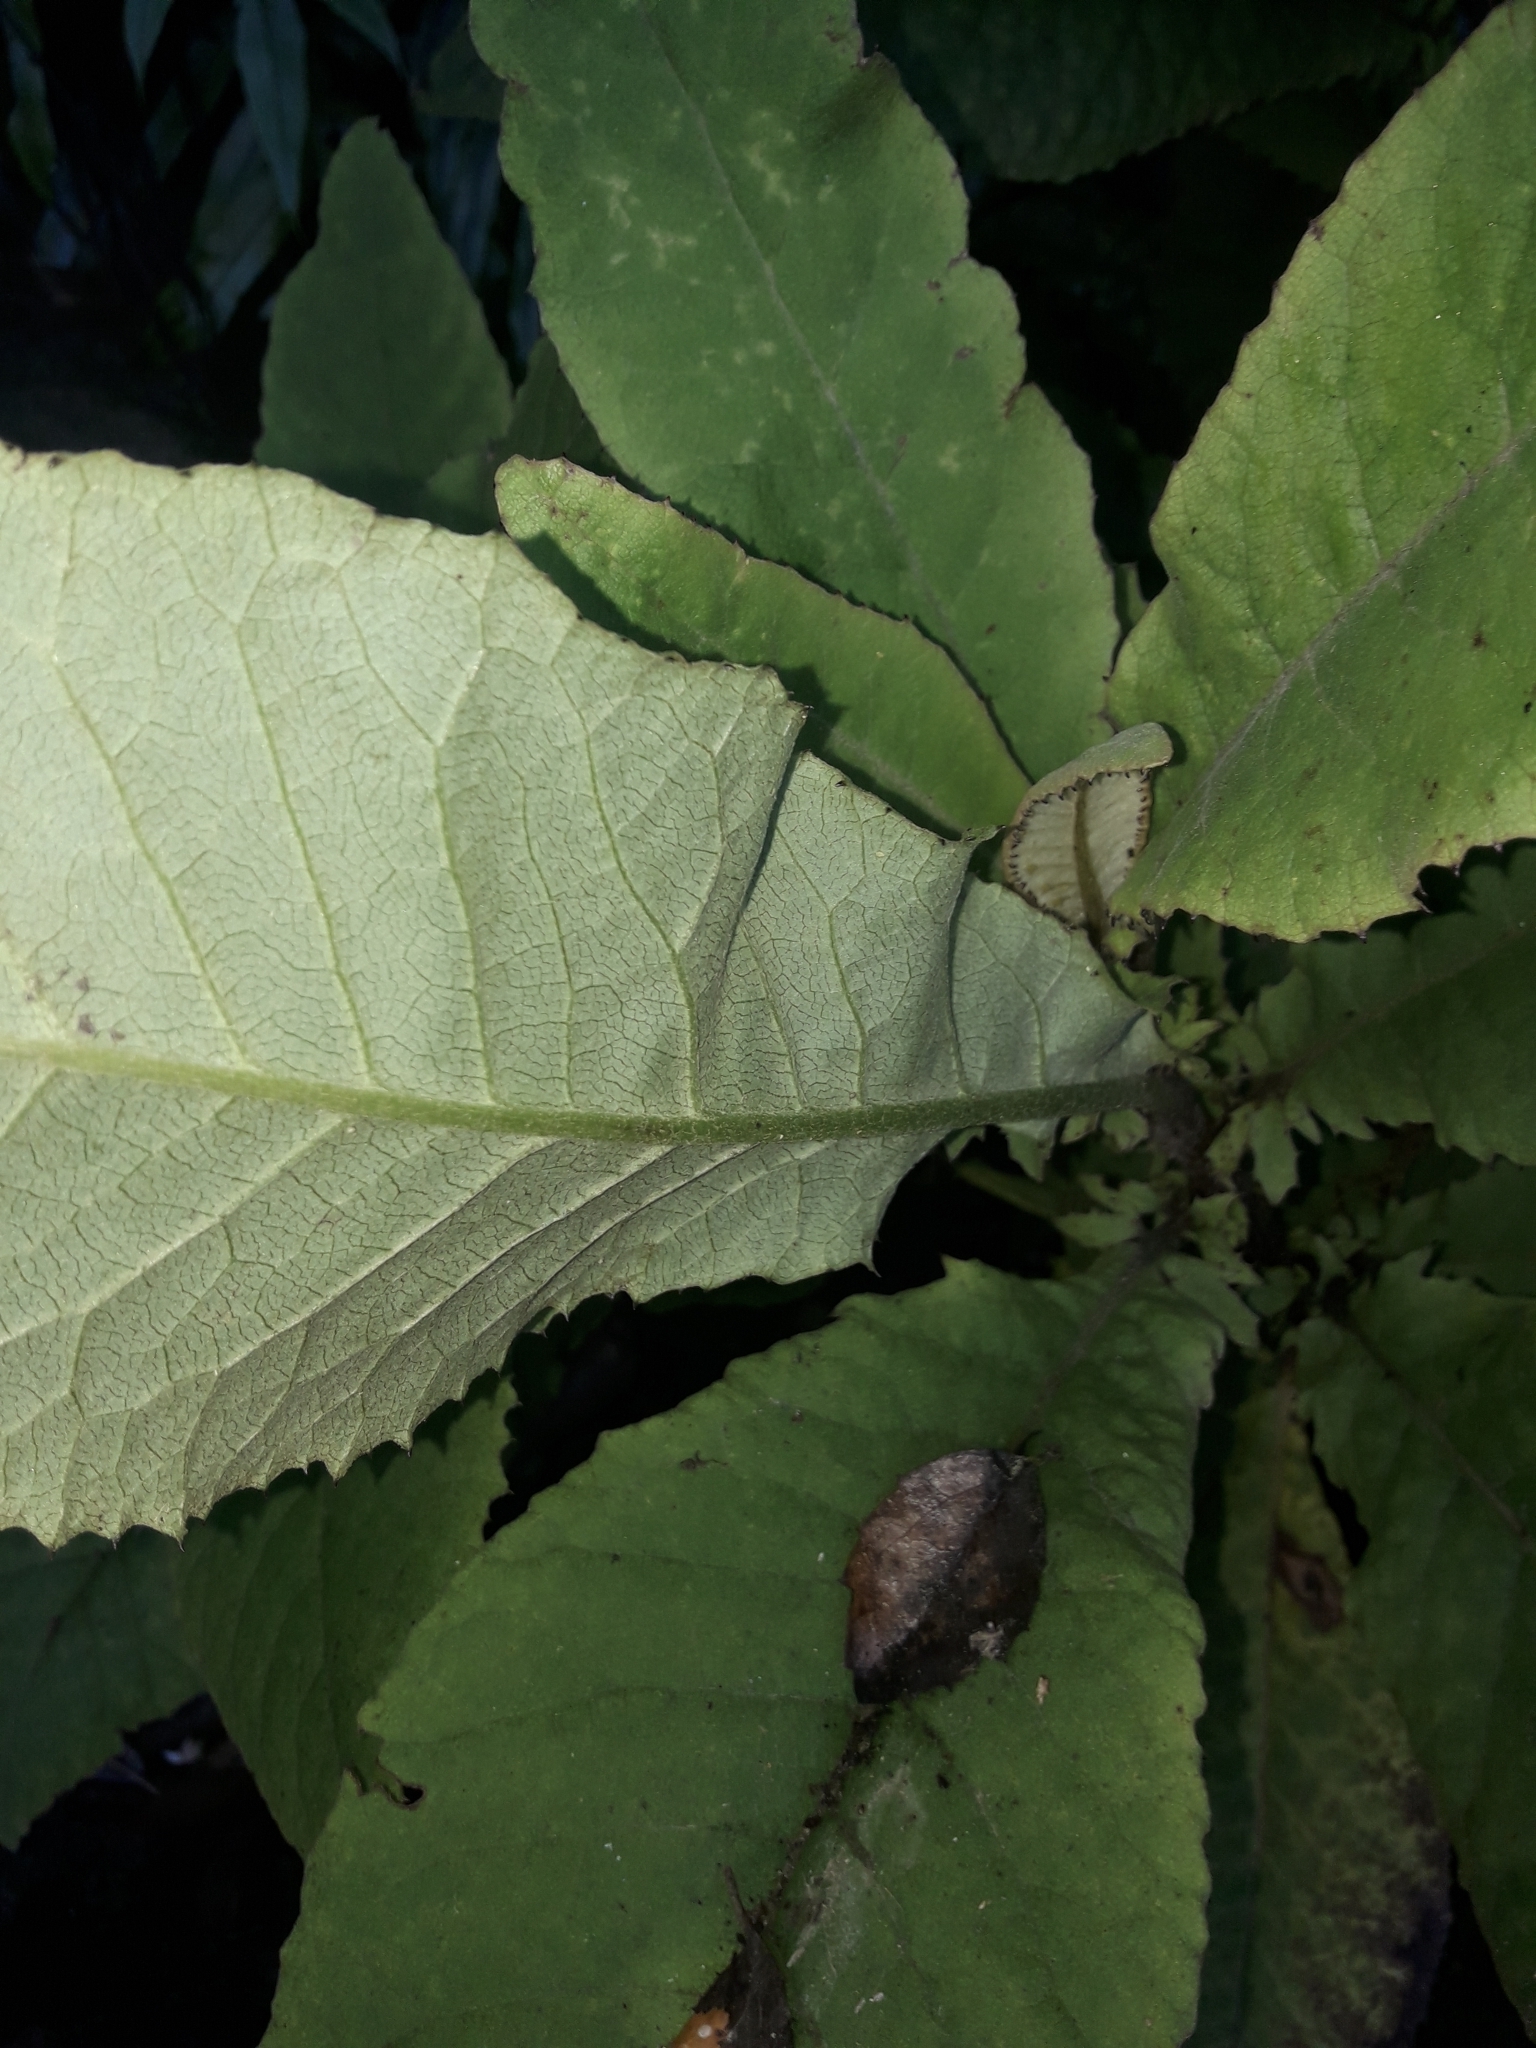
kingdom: Plantae
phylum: Tracheophyta
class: Magnoliopsida
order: Asterales
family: Asteraceae
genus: Brachyglottis
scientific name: Brachyglottis hectorii
